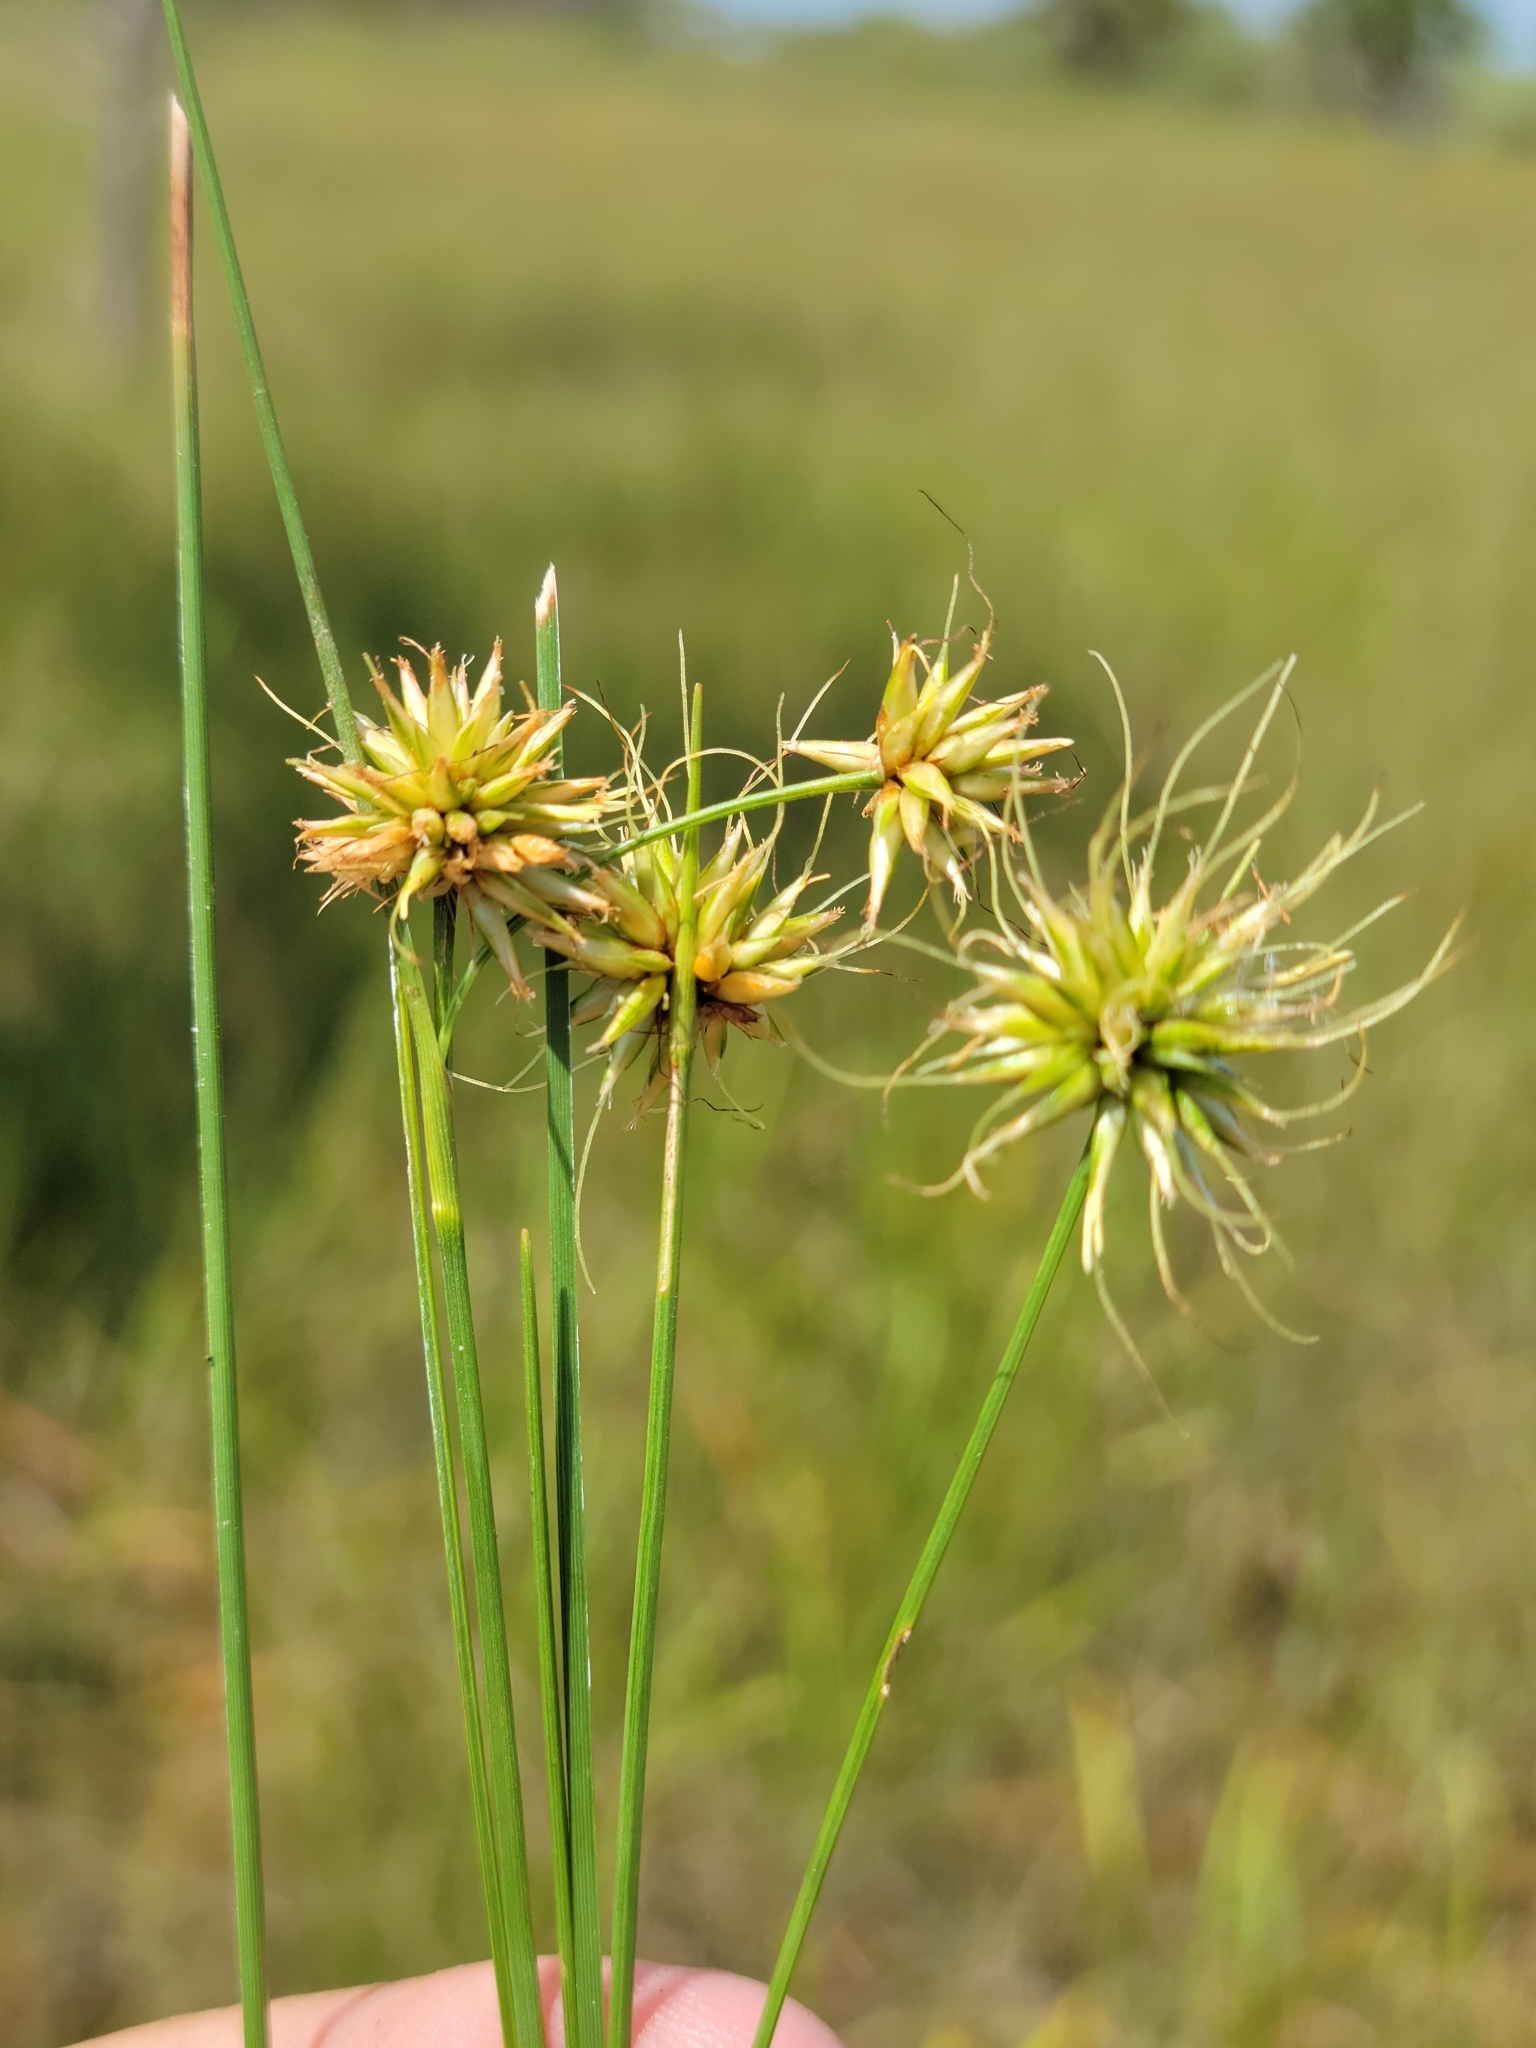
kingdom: Plantae
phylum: Tracheophyta
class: Liliopsida
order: Poales
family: Cyperaceae
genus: Rhynchospora
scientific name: Rhynchospora tracyi
